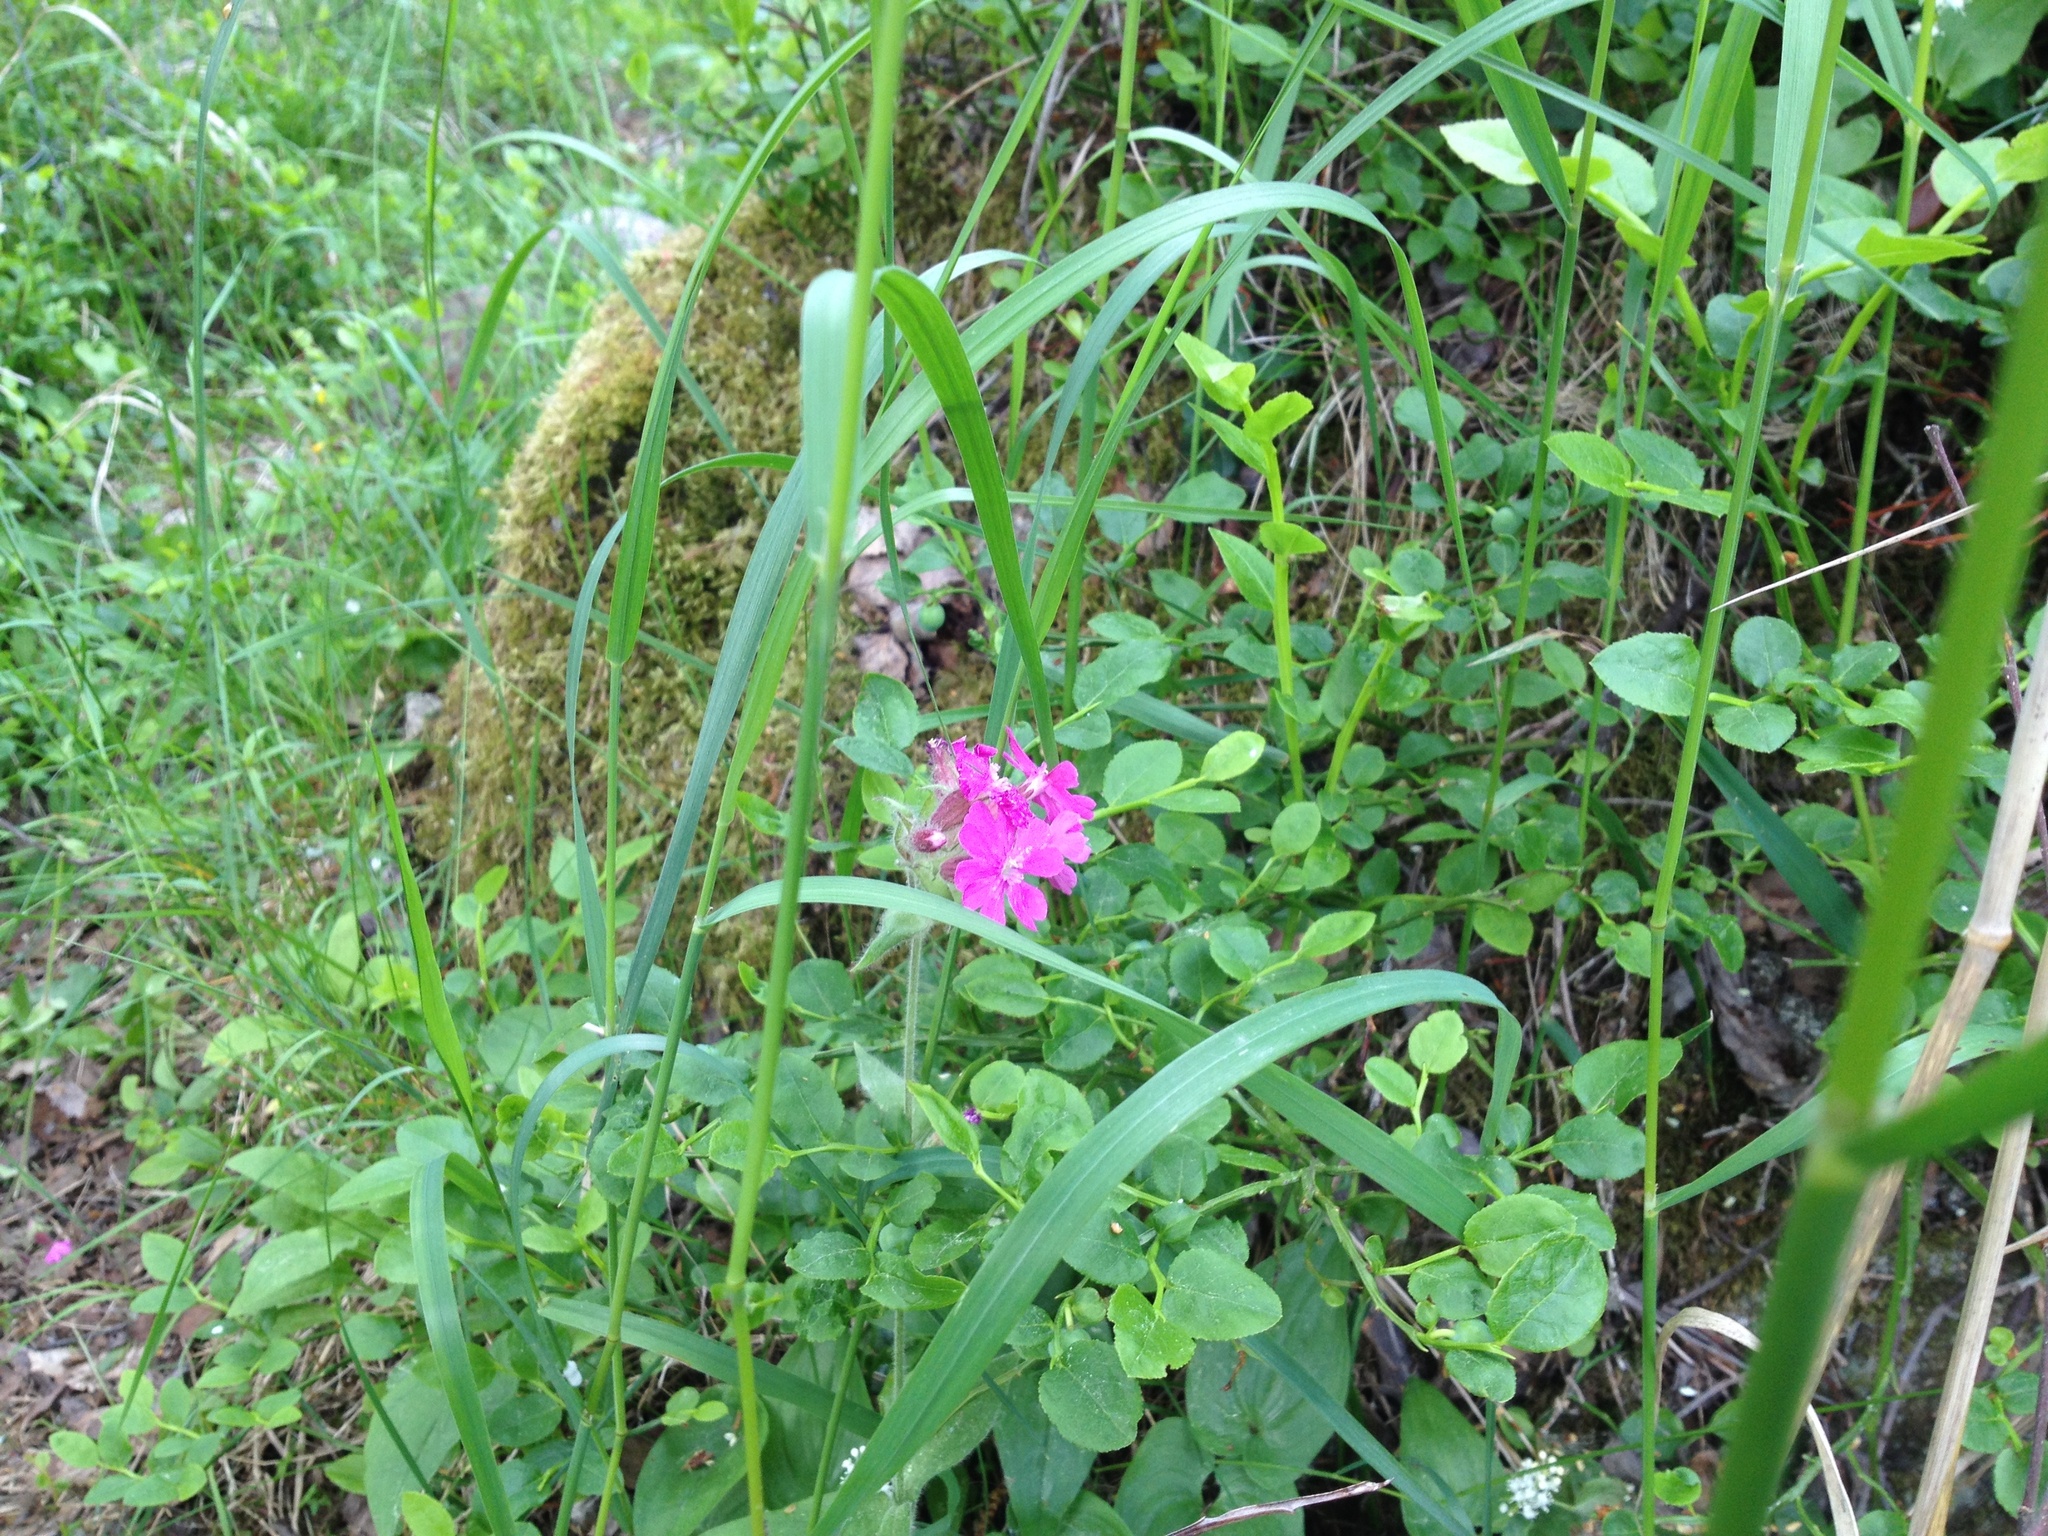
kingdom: Plantae
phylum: Tracheophyta
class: Magnoliopsida
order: Caryophyllales
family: Caryophyllaceae
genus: Silene
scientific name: Silene dioica
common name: Red campion
